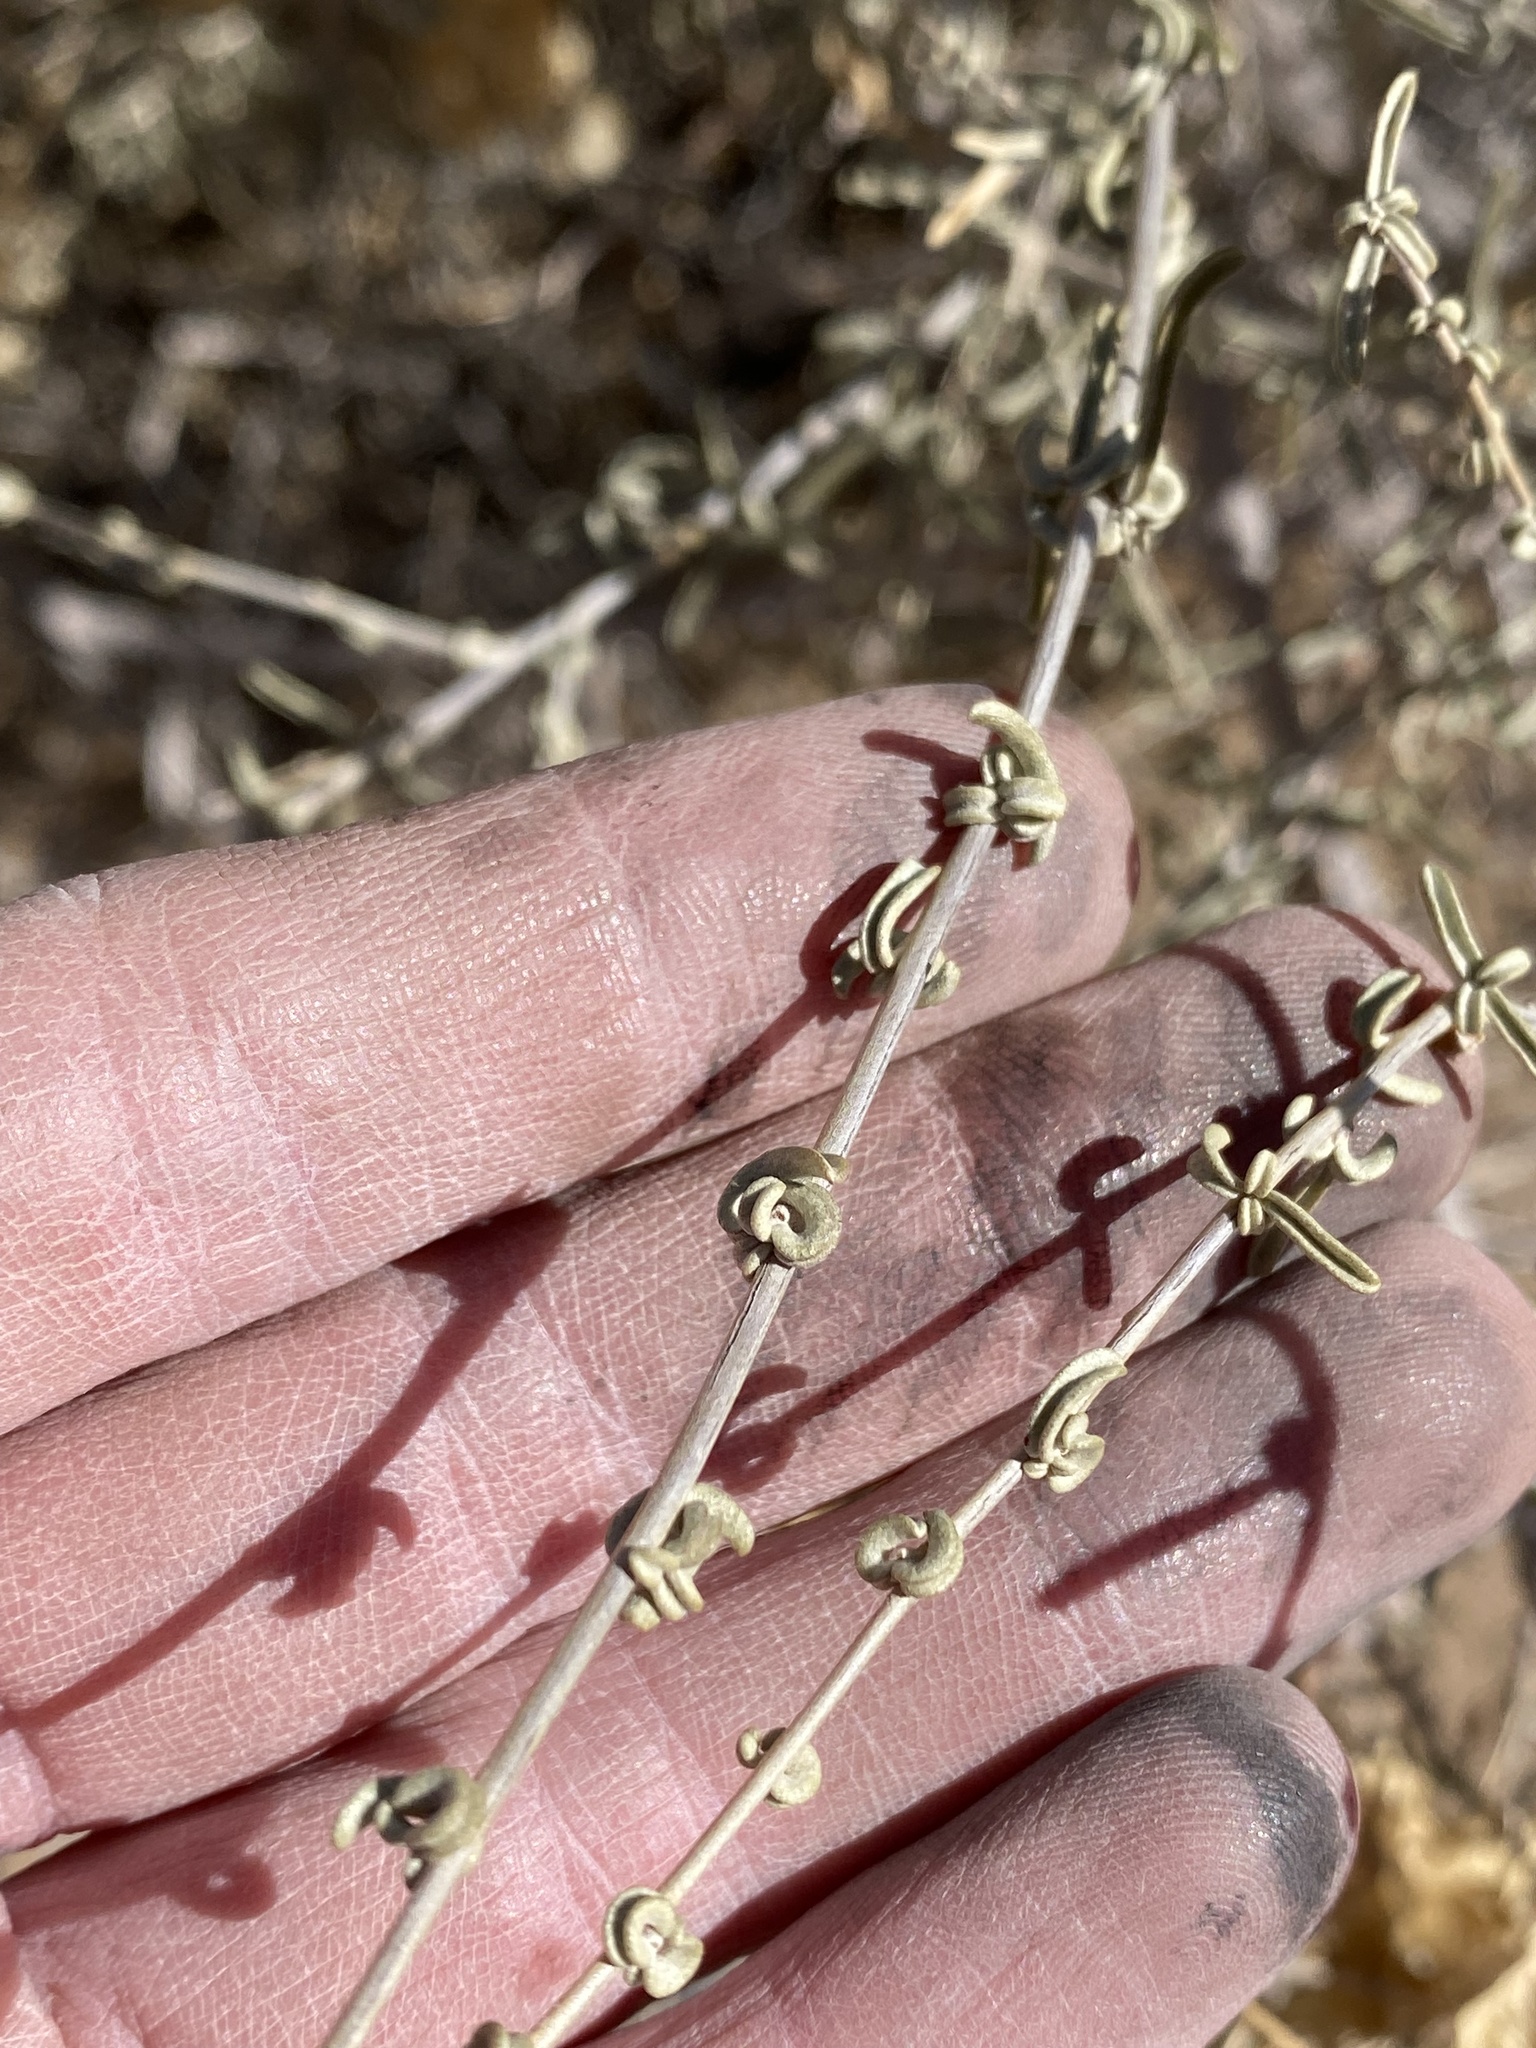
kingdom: Plantae
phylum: Tracheophyta
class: Magnoliopsida
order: Caryophyllales
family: Amaranthaceae
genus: Atriplex
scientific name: Atriplex canescens
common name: Four-wing saltbush
